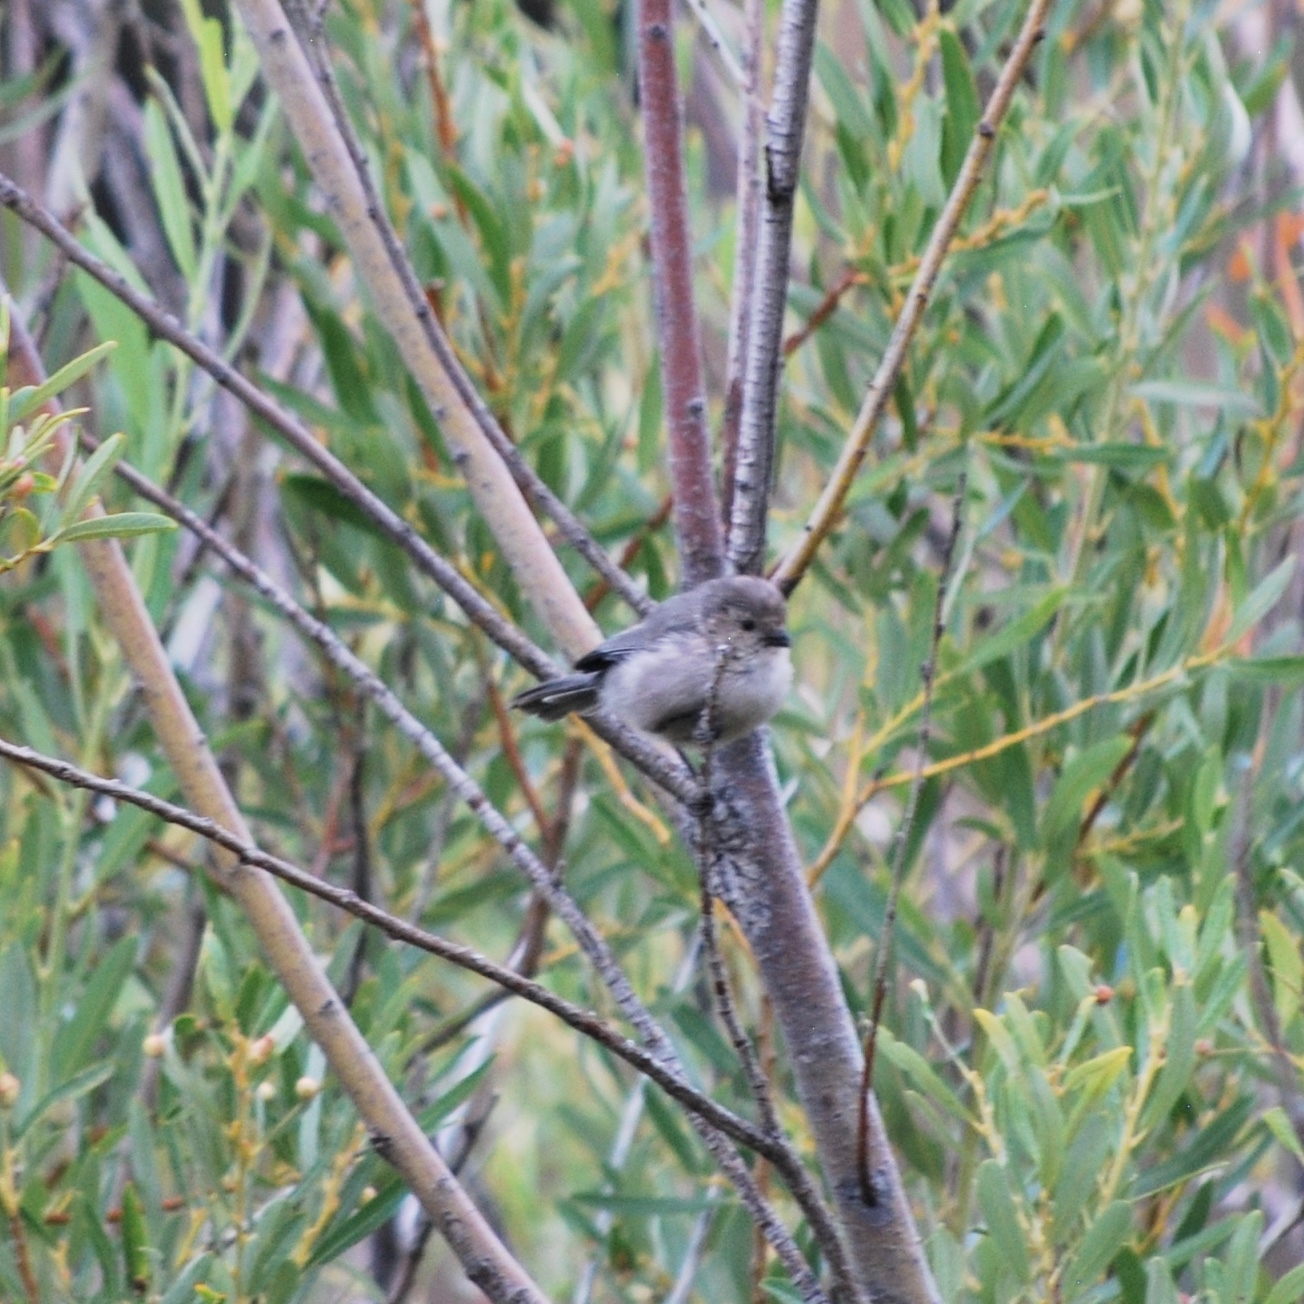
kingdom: Animalia
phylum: Chordata
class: Aves
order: Passeriformes
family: Aegithalidae
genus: Psaltriparus
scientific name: Psaltriparus minimus
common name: American bushtit
